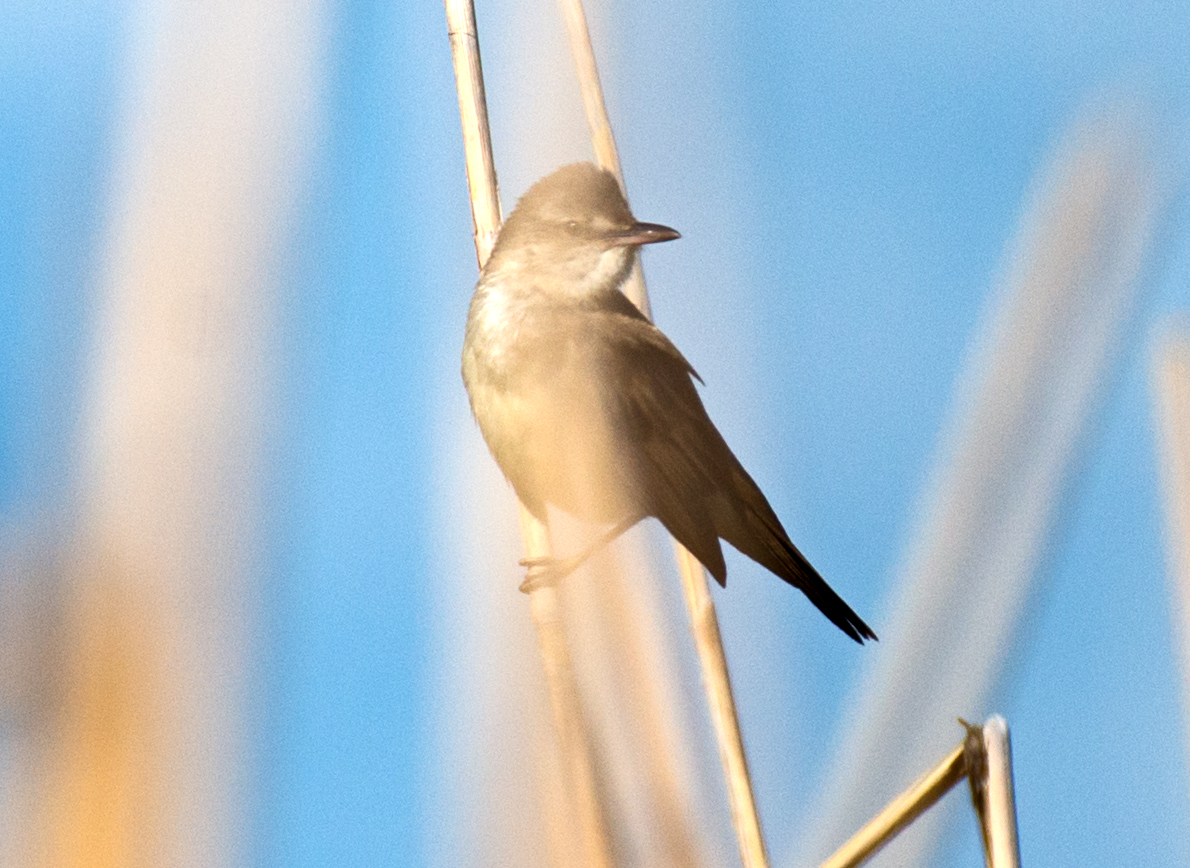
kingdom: Animalia
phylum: Chordata
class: Aves
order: Passeriformes
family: Acrocephalidae
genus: Acrocephalus
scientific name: Acrocephalus arundinaceus
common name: Great reed warbler
